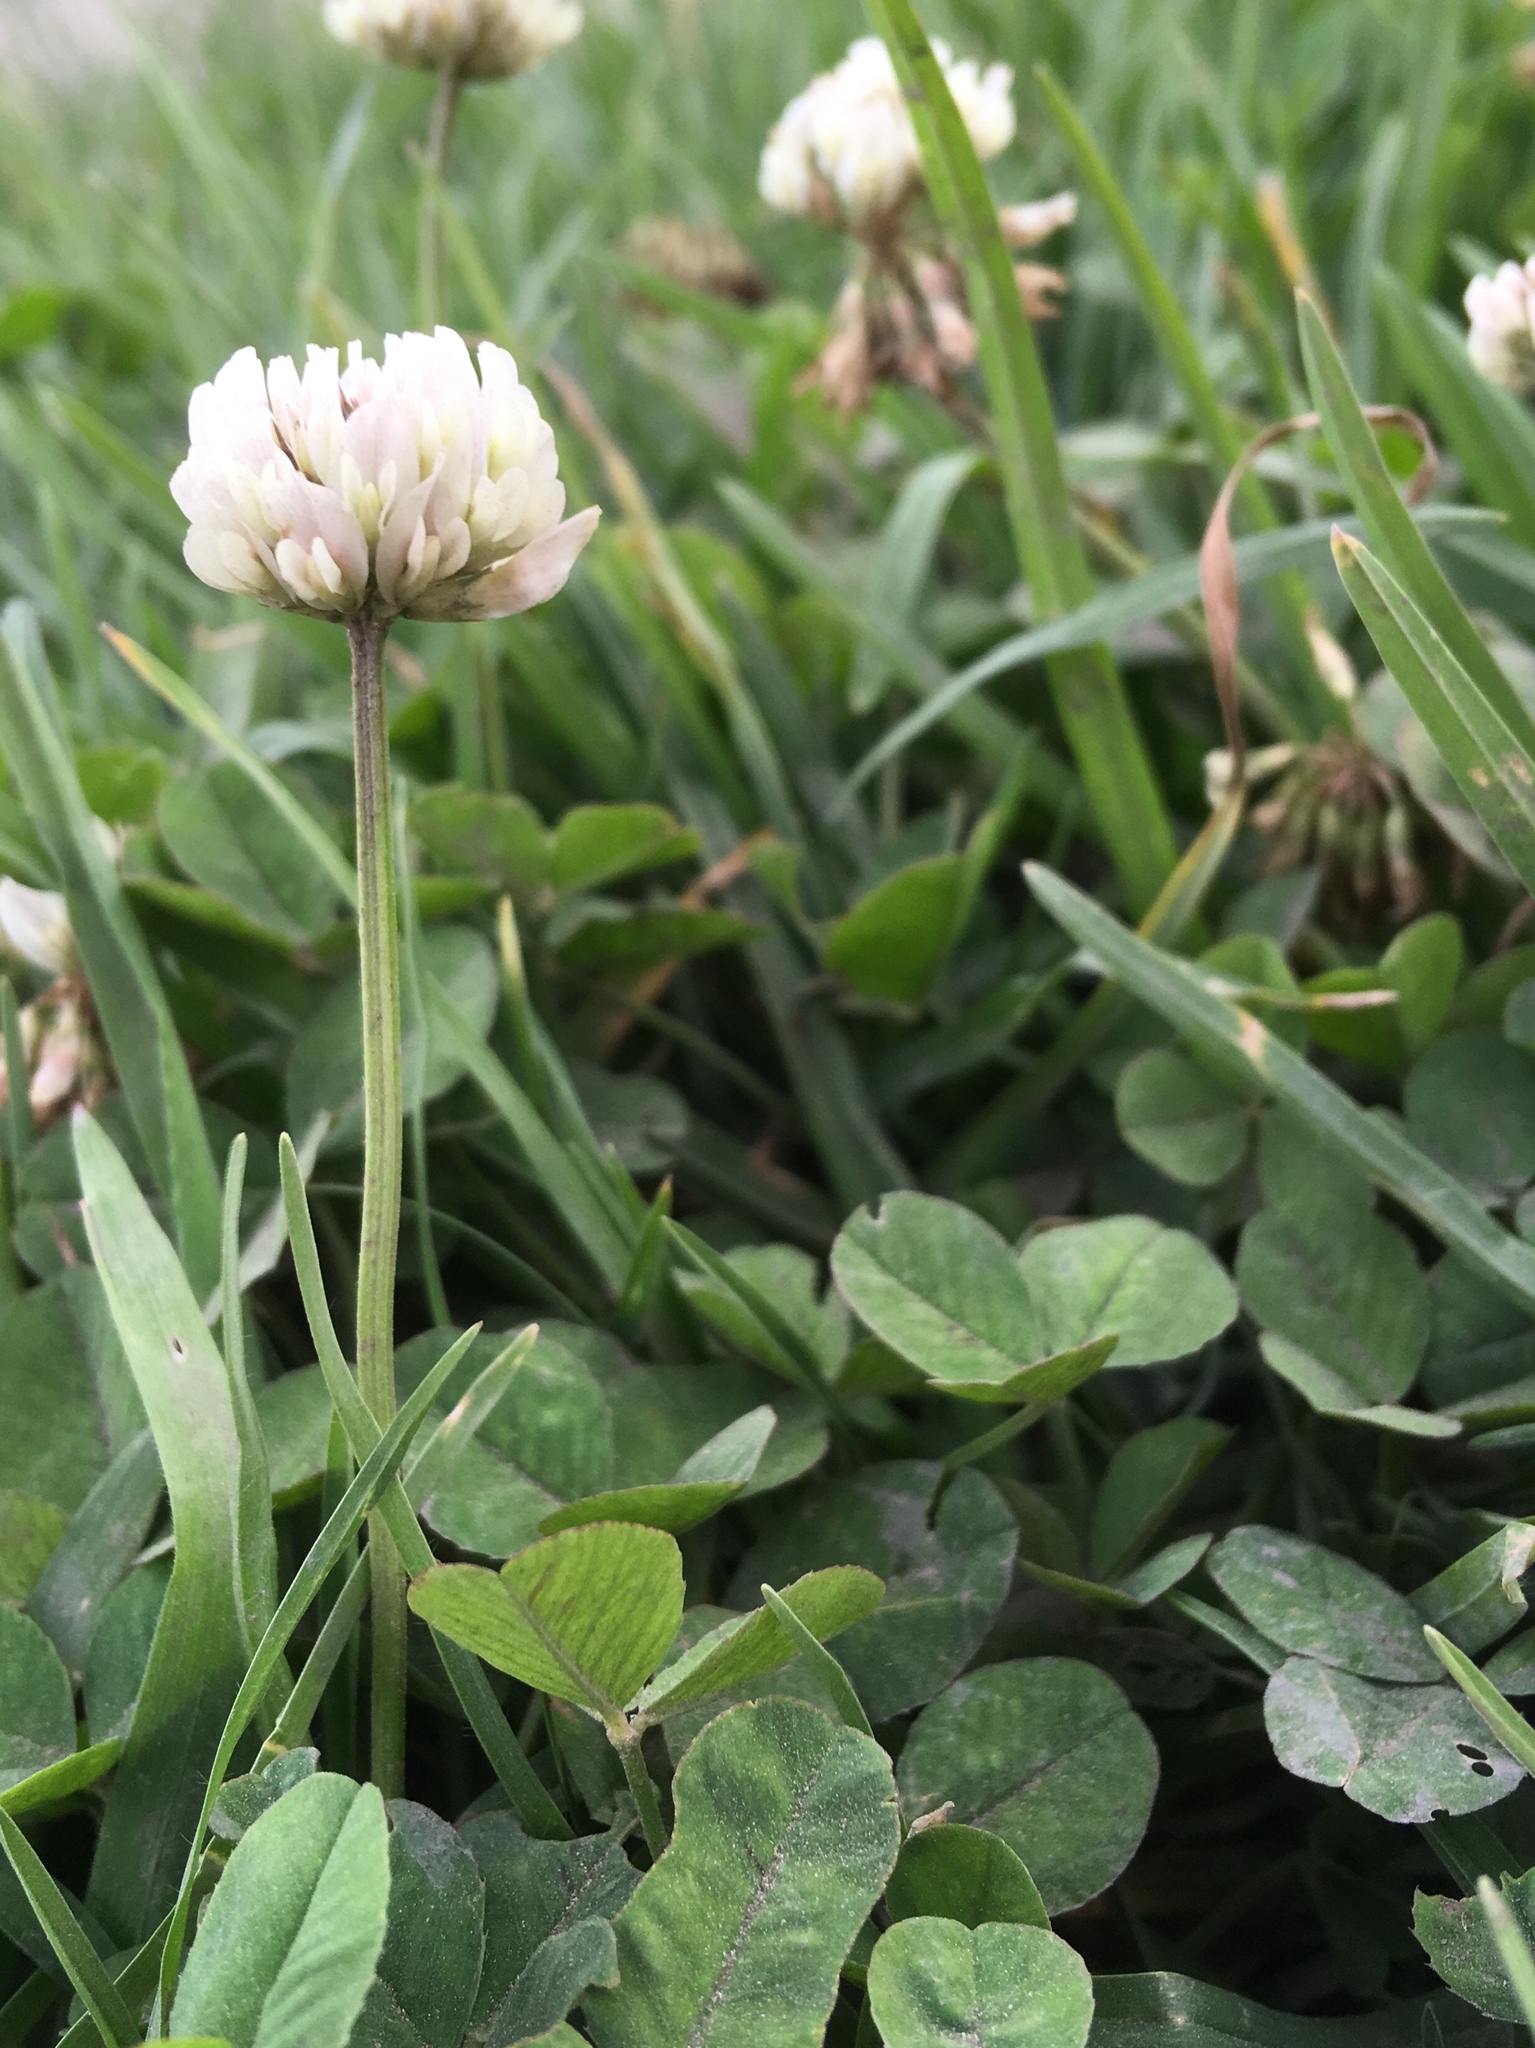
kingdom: Plantae
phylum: Tracheophyta
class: Magnoliopsida
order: Fabales
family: Fabaceae
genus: Trifolium
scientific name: Trifolium repens
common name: White clover
